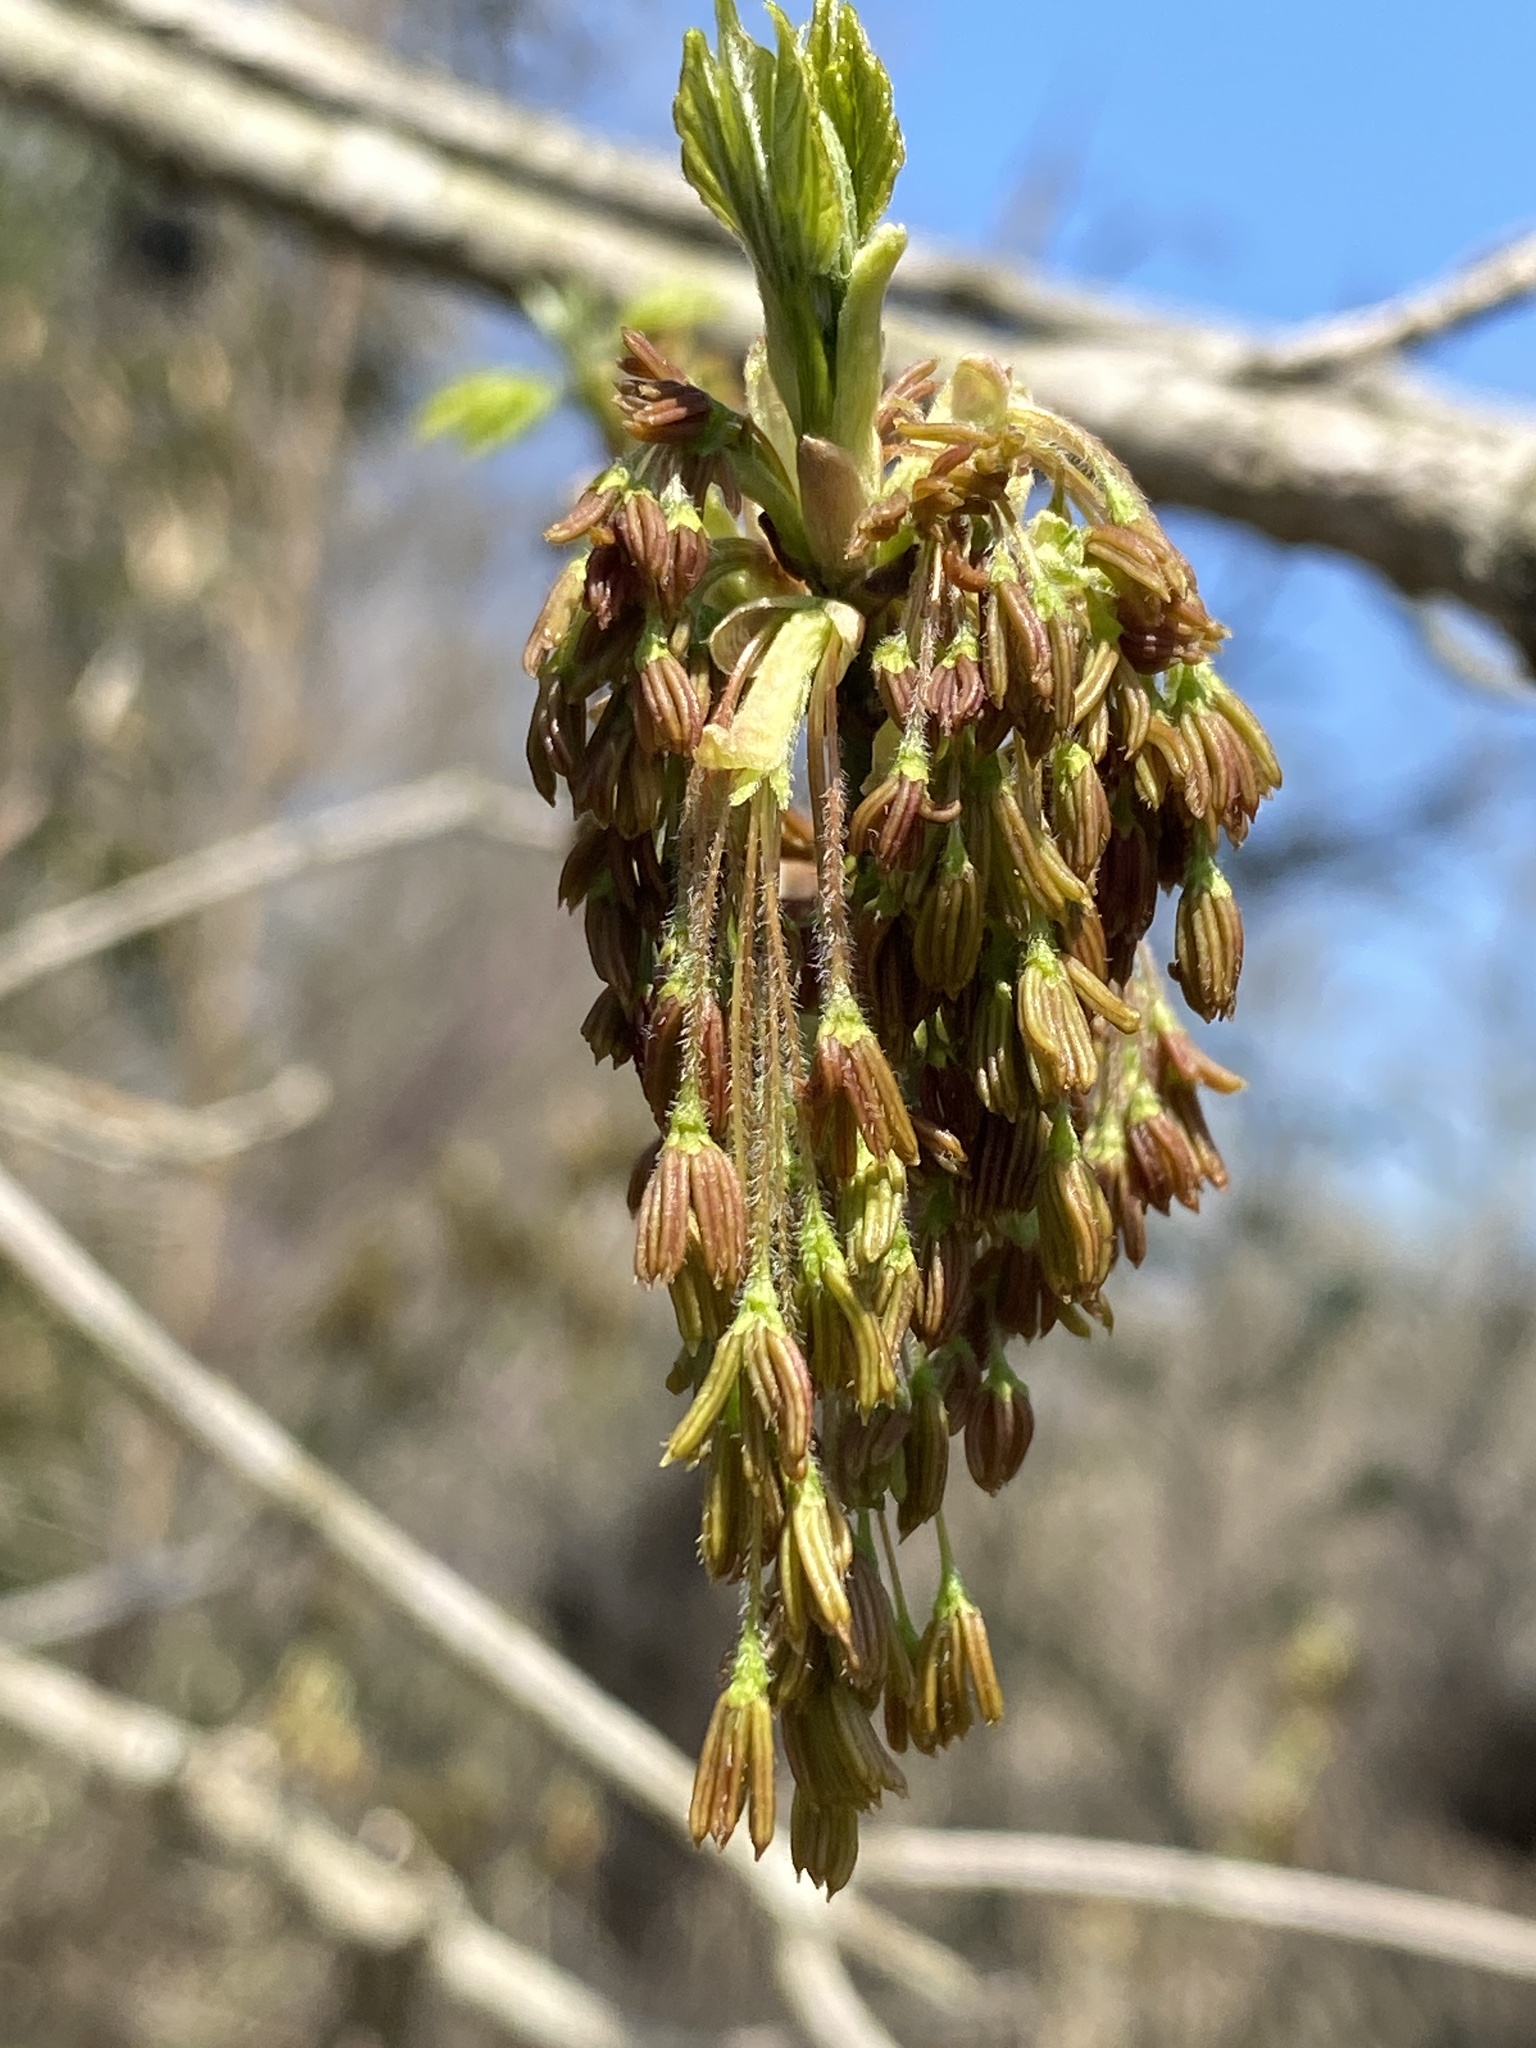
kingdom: Plantae
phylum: Tracheophyta
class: Magnoliopsida
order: Sapindales
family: Sapindaceae
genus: Acer
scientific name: Acer negundo
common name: Ashleaf maple
